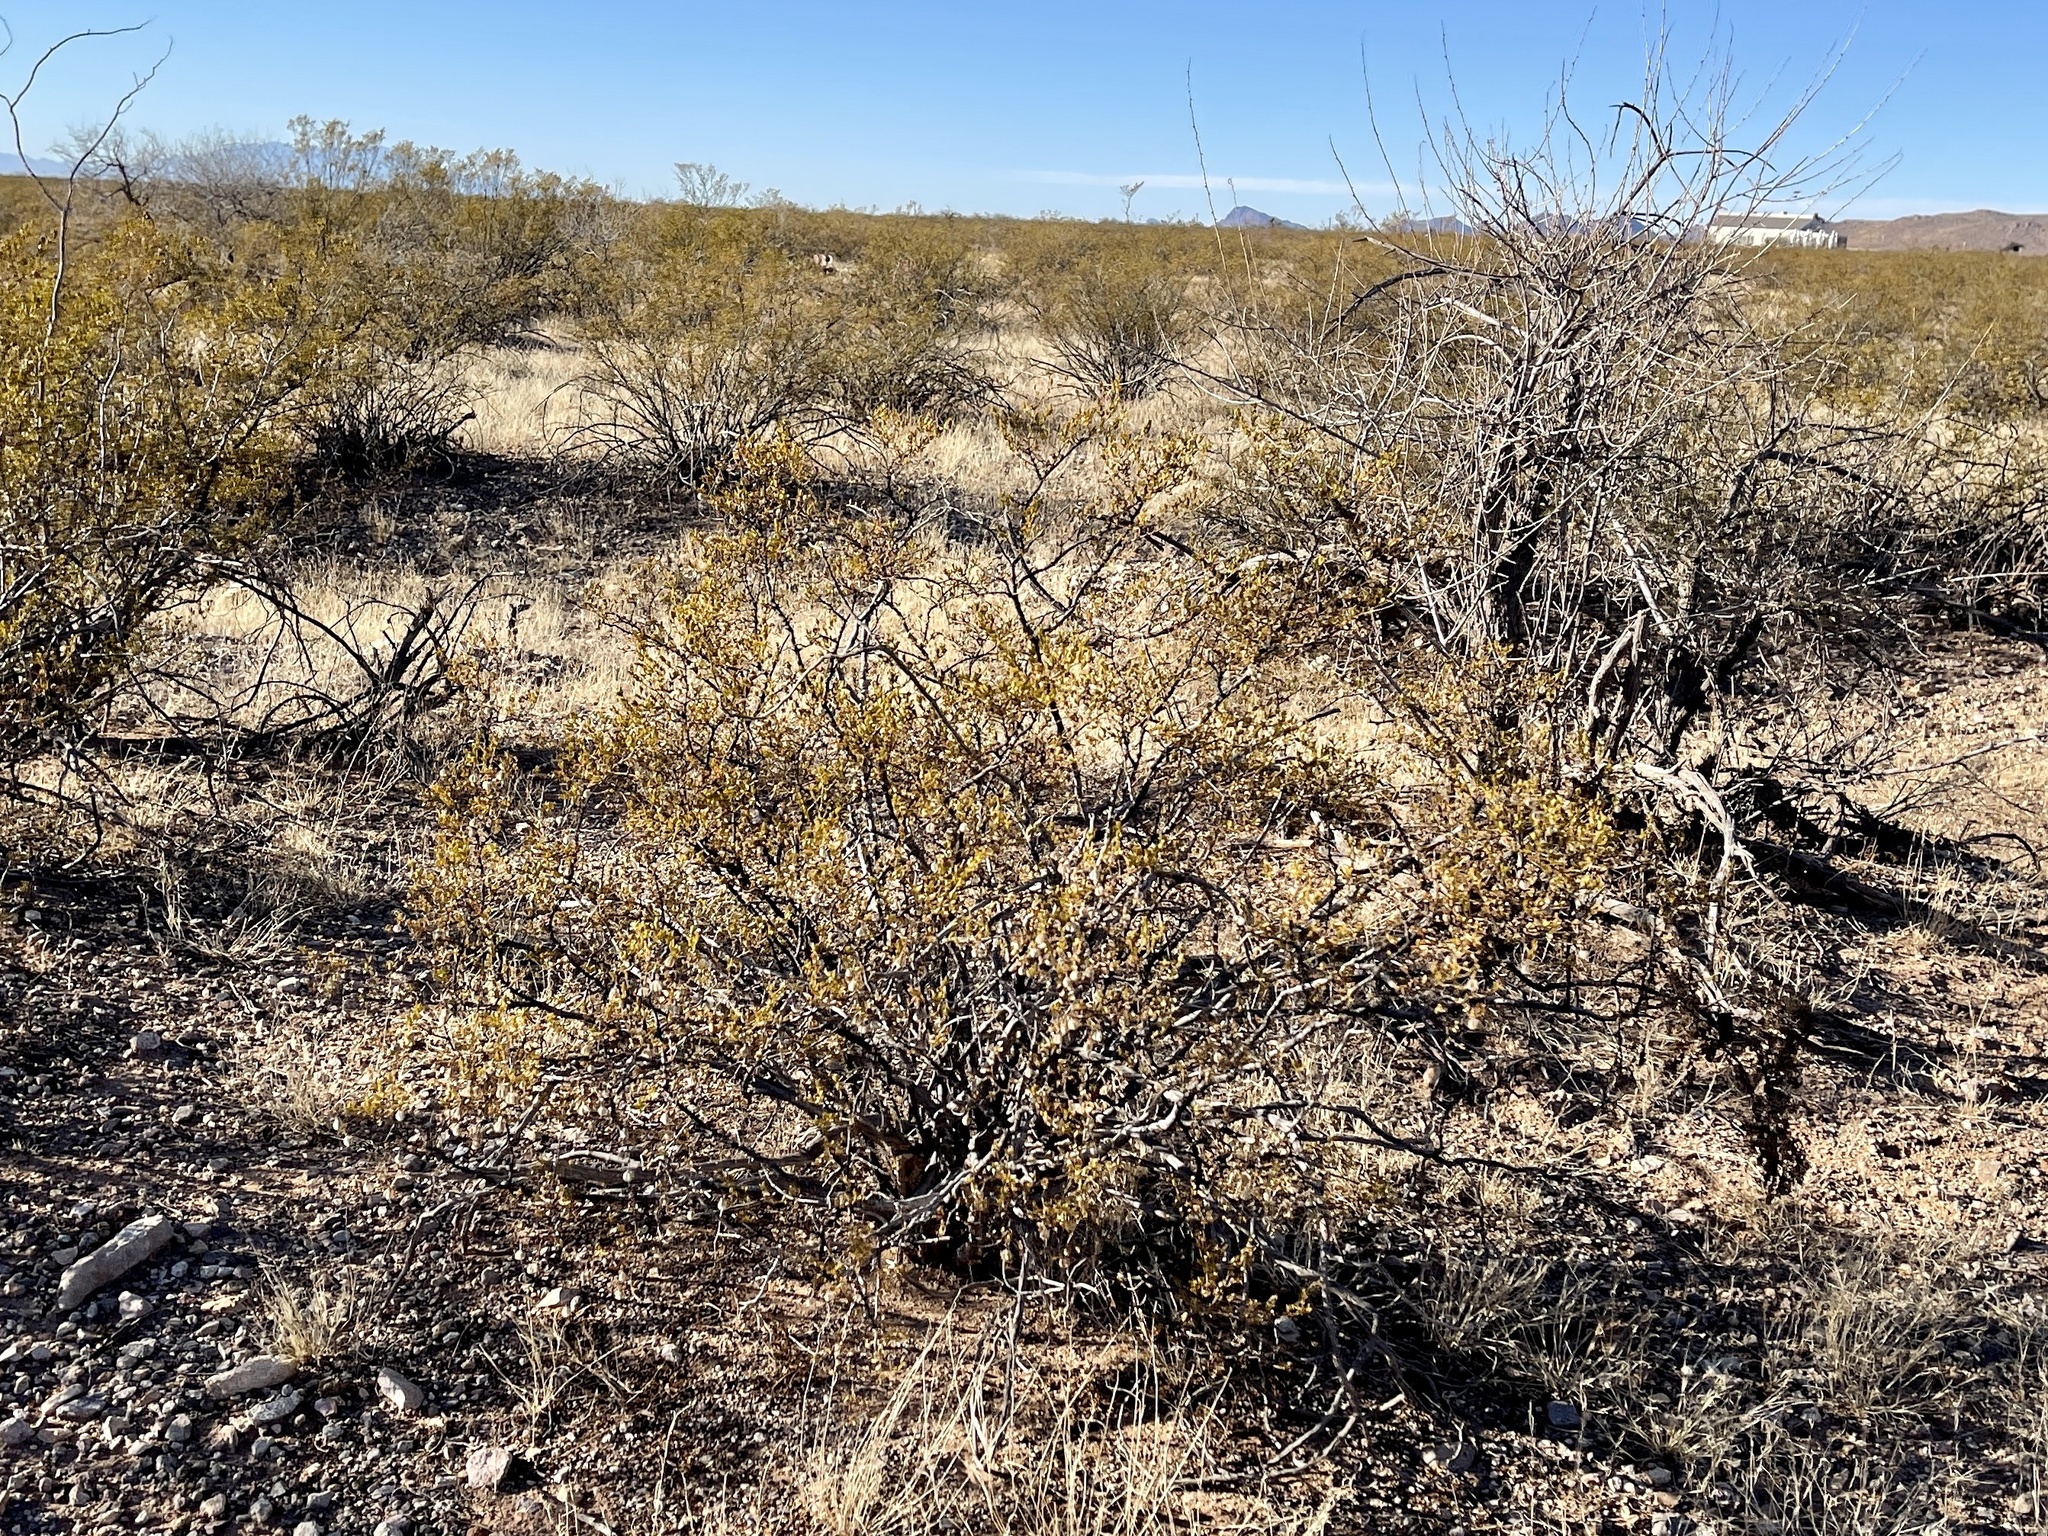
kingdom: Plantae
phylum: Tracheophyta
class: Magnoliopsida
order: Zygophyllales
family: Zygophyllaceae
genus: Larrea
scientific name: Larrea tridentata
